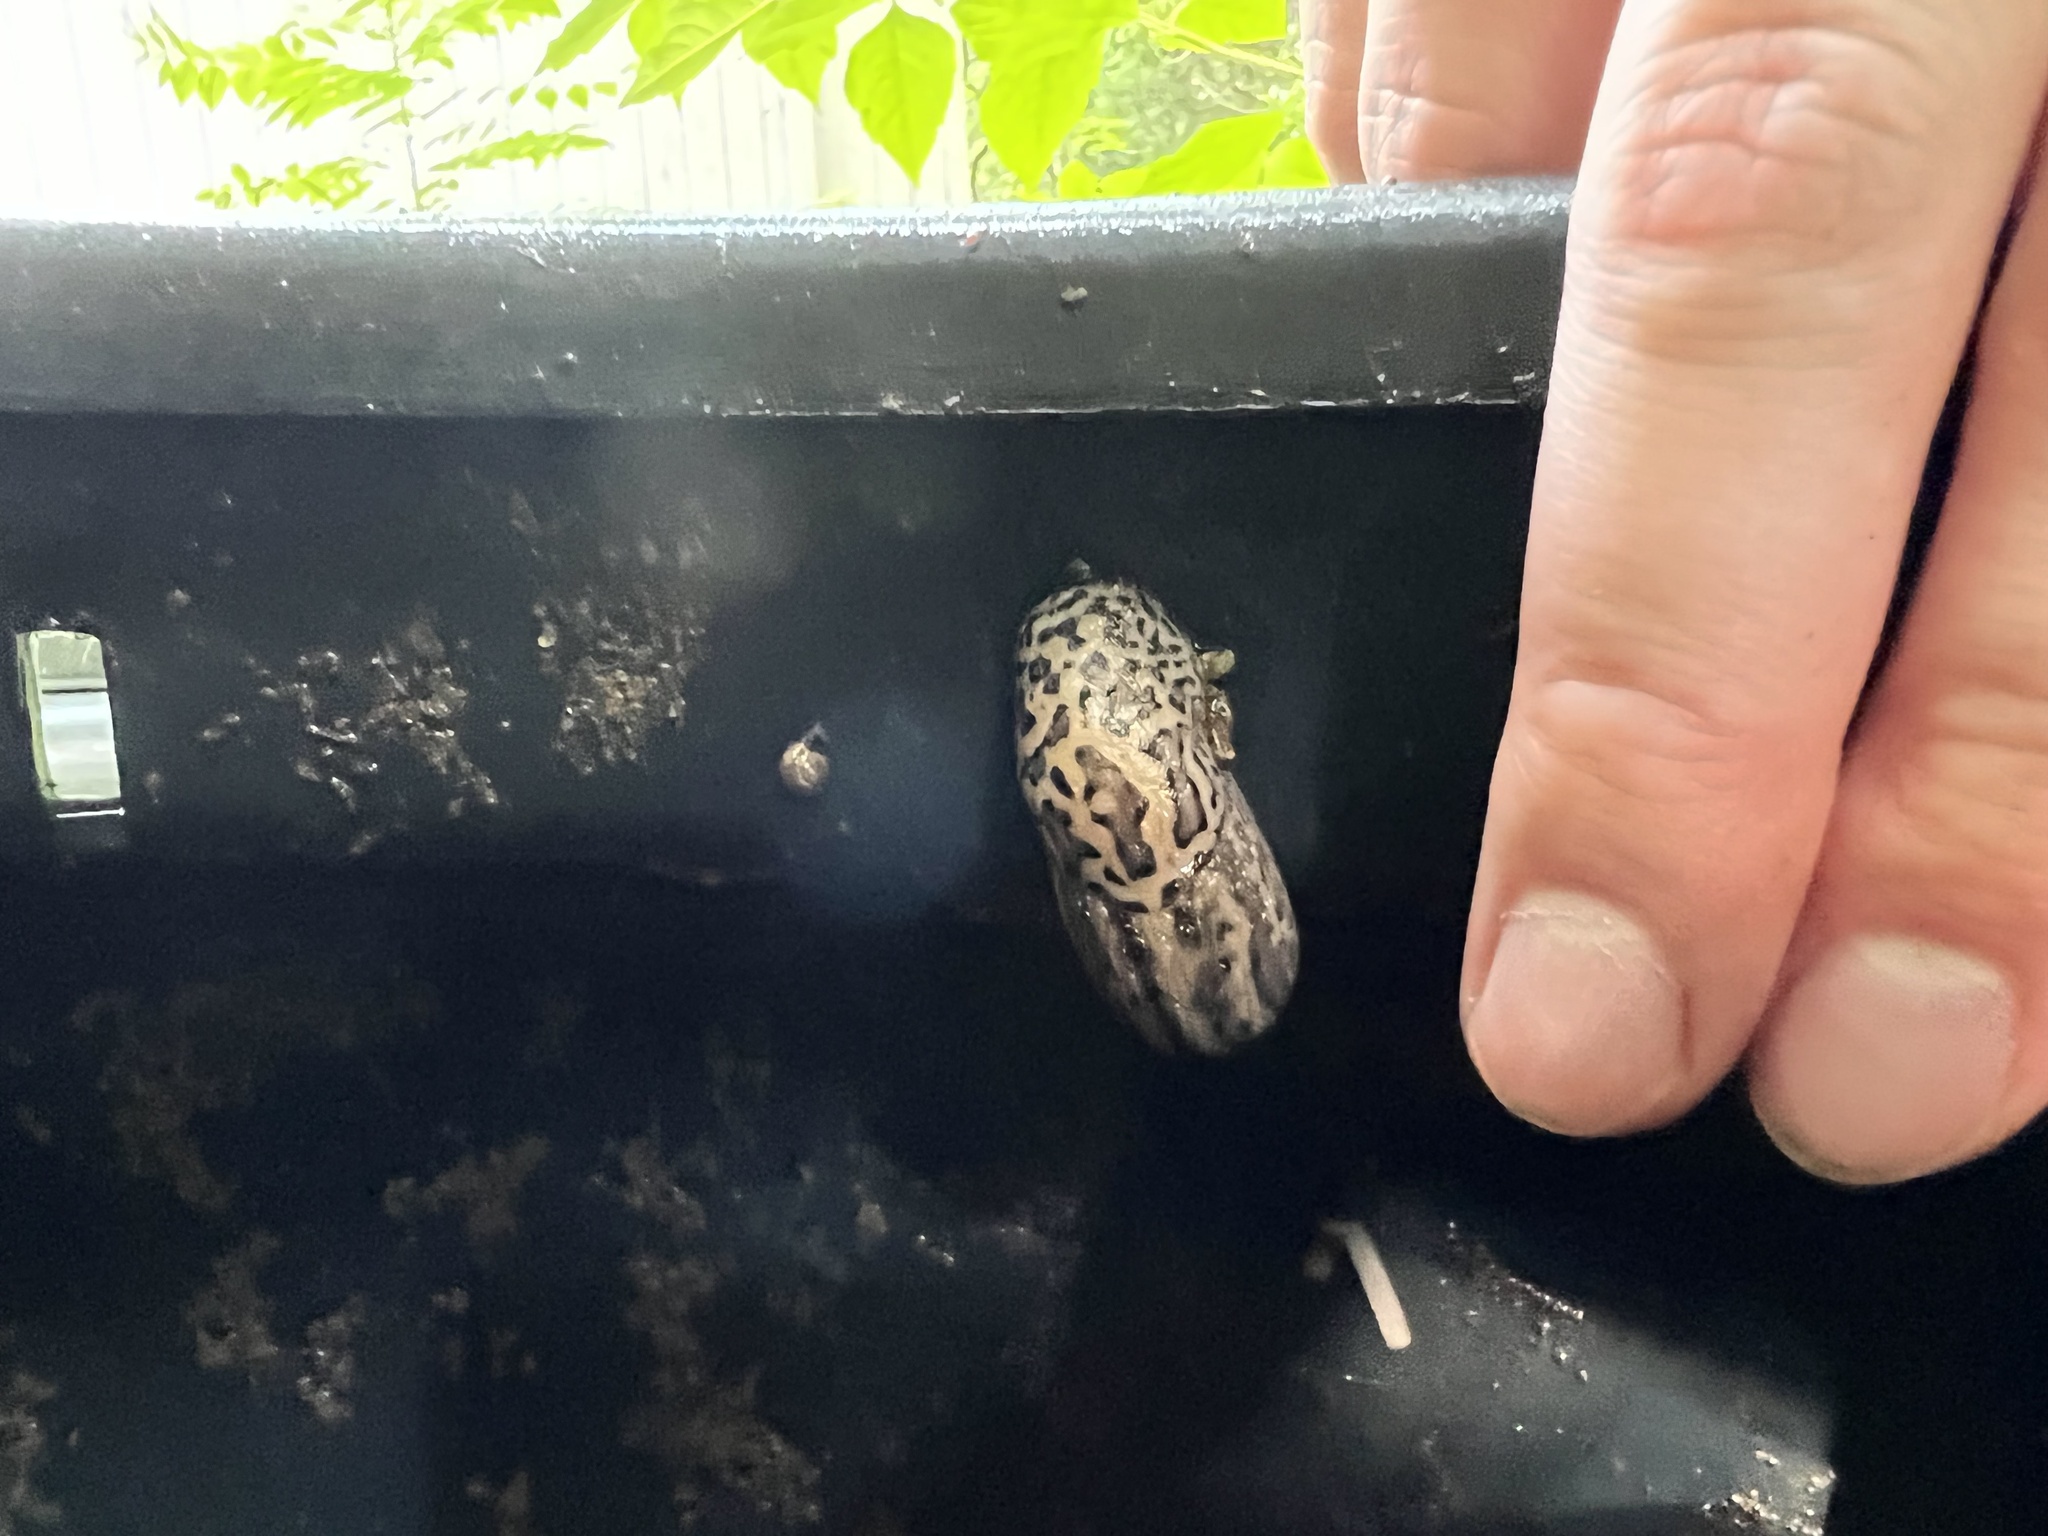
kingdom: Animalia
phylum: Mollusca
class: Gastropoda
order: Stylommatophora
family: Limacidae
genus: Limax
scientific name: Limax maximus
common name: Great grey slug
